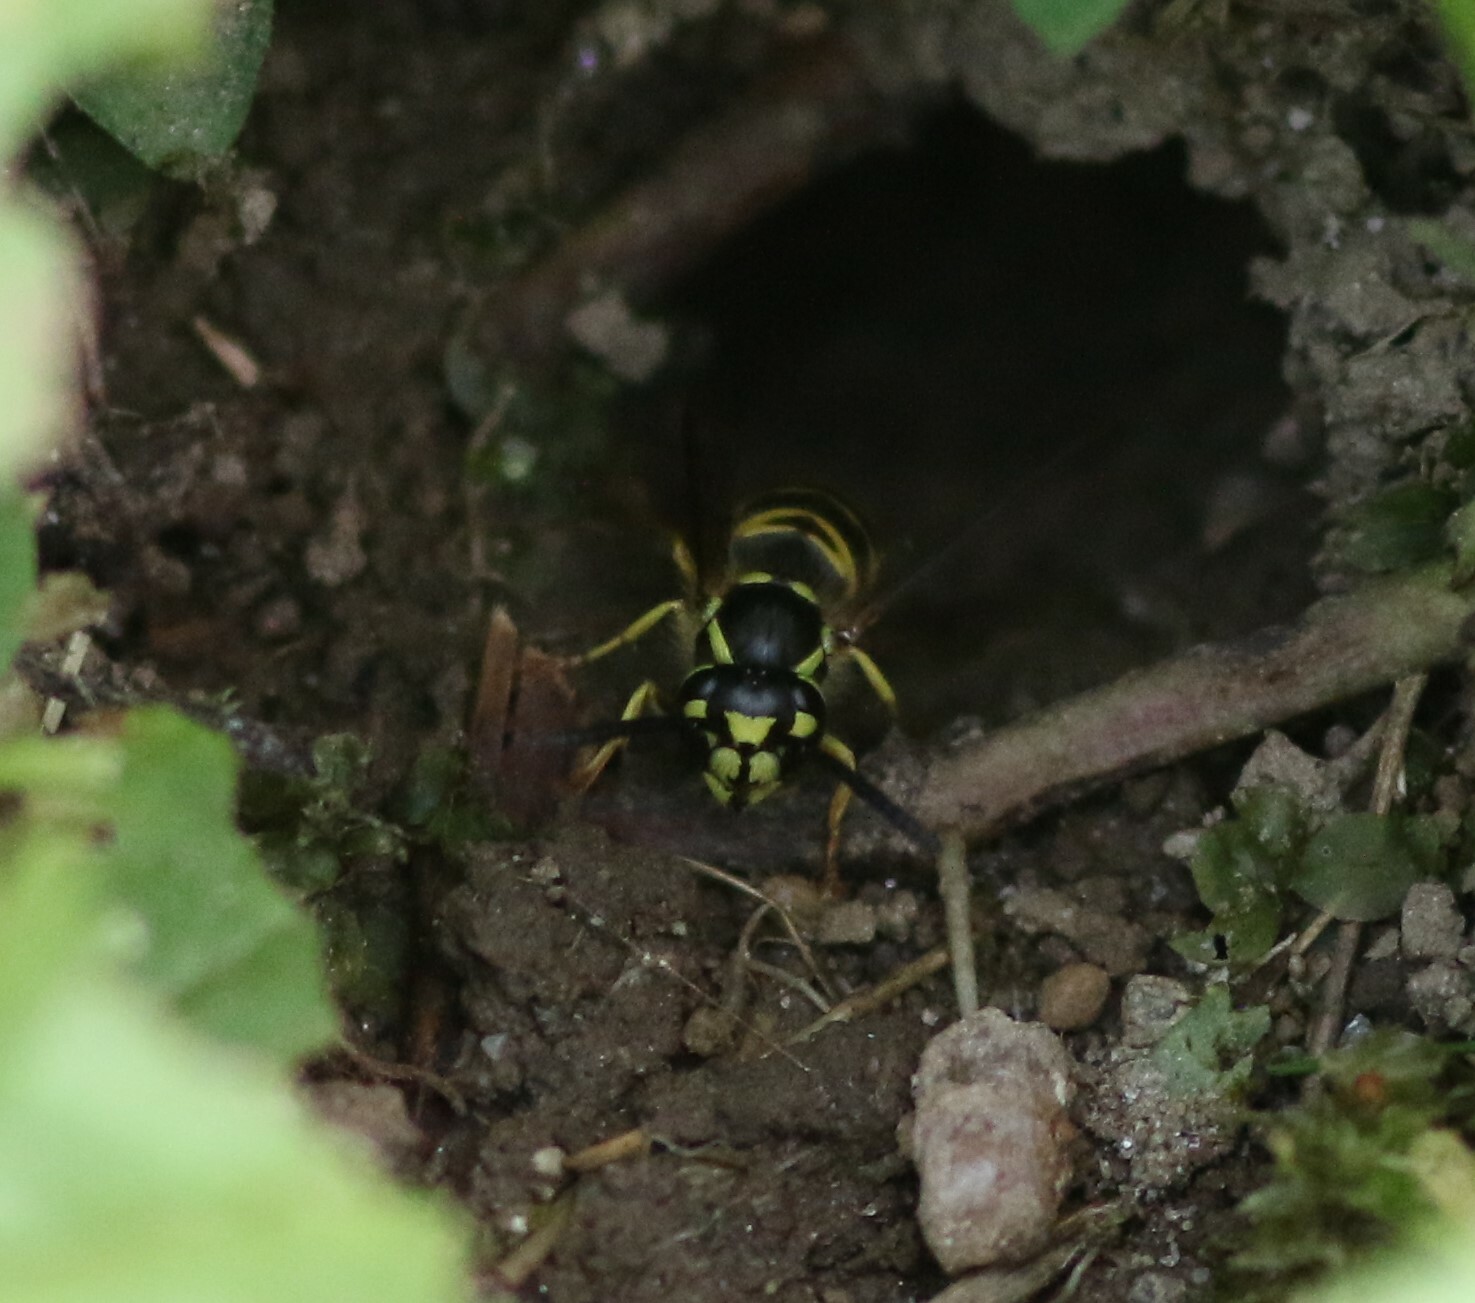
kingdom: Animalia
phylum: Arthropoda
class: Insecta
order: Hymenoptera
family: Vespidae
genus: Vespula
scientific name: Vespula maculifrons
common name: Eastern yellowjacket
